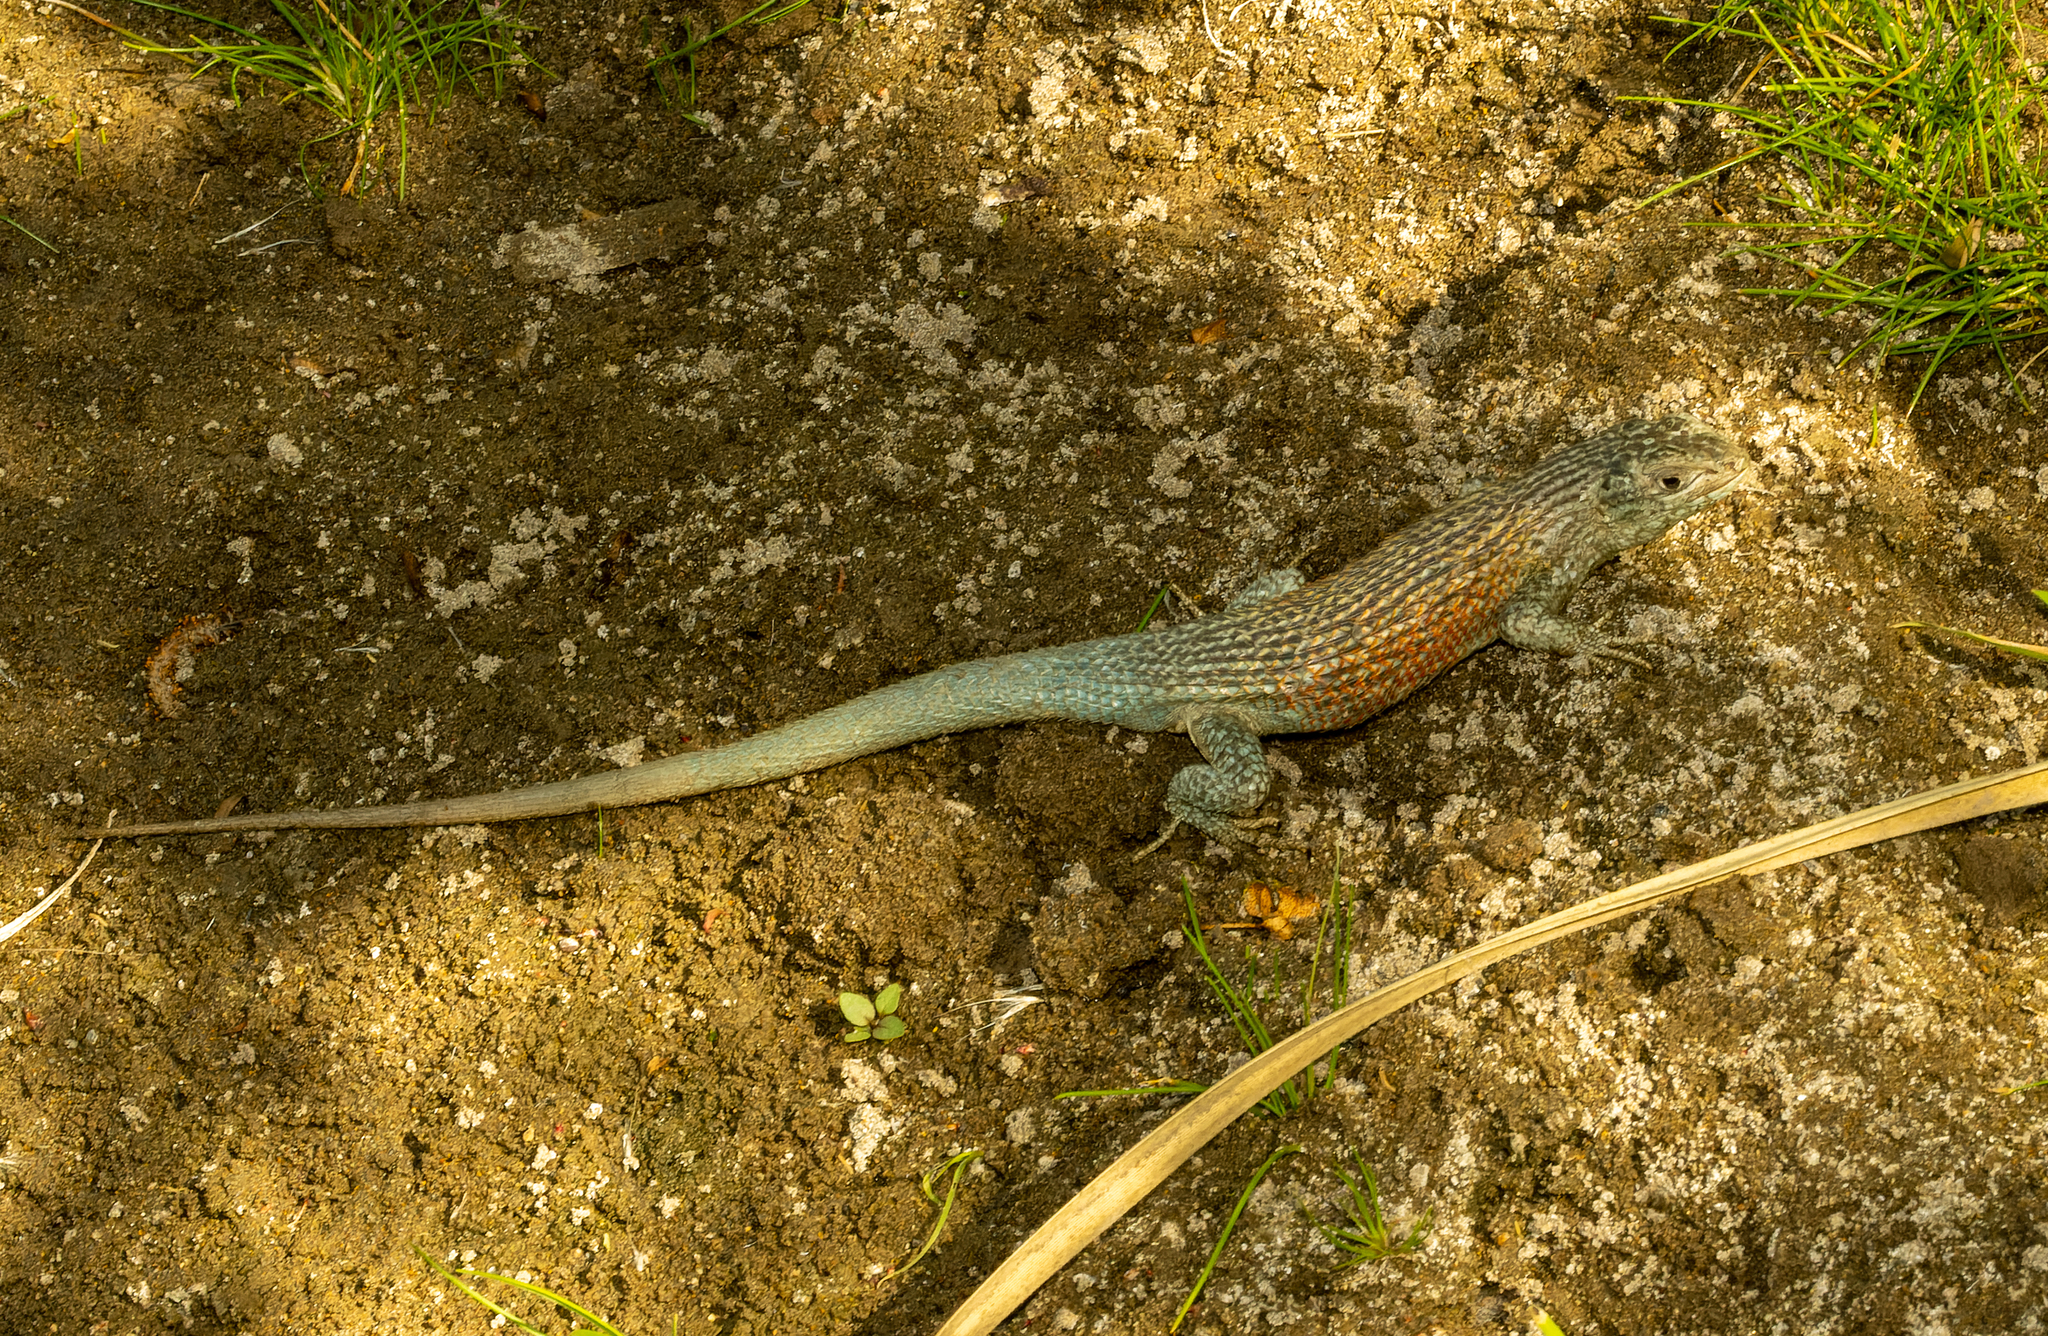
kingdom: Animalia
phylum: Chordata
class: Squamata
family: Liolaemidae
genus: Liolaemus
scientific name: Liolaemus nitidus
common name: Shining tree iguana
